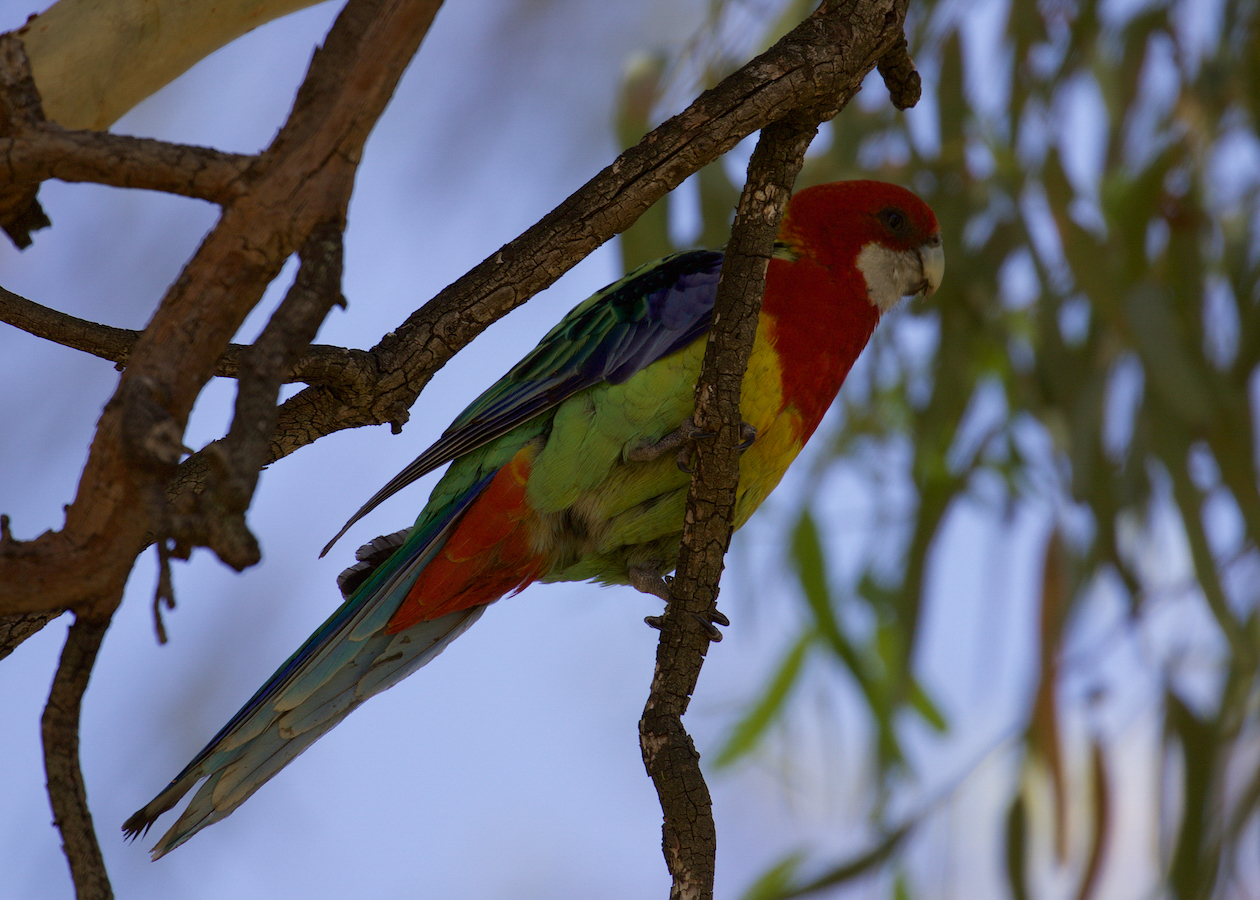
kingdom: Animalia
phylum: Chordata
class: Aves
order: Psittaciformes
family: Psittacidae
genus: Platycercus
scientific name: Platycercus eximius
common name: Eastern rosella
